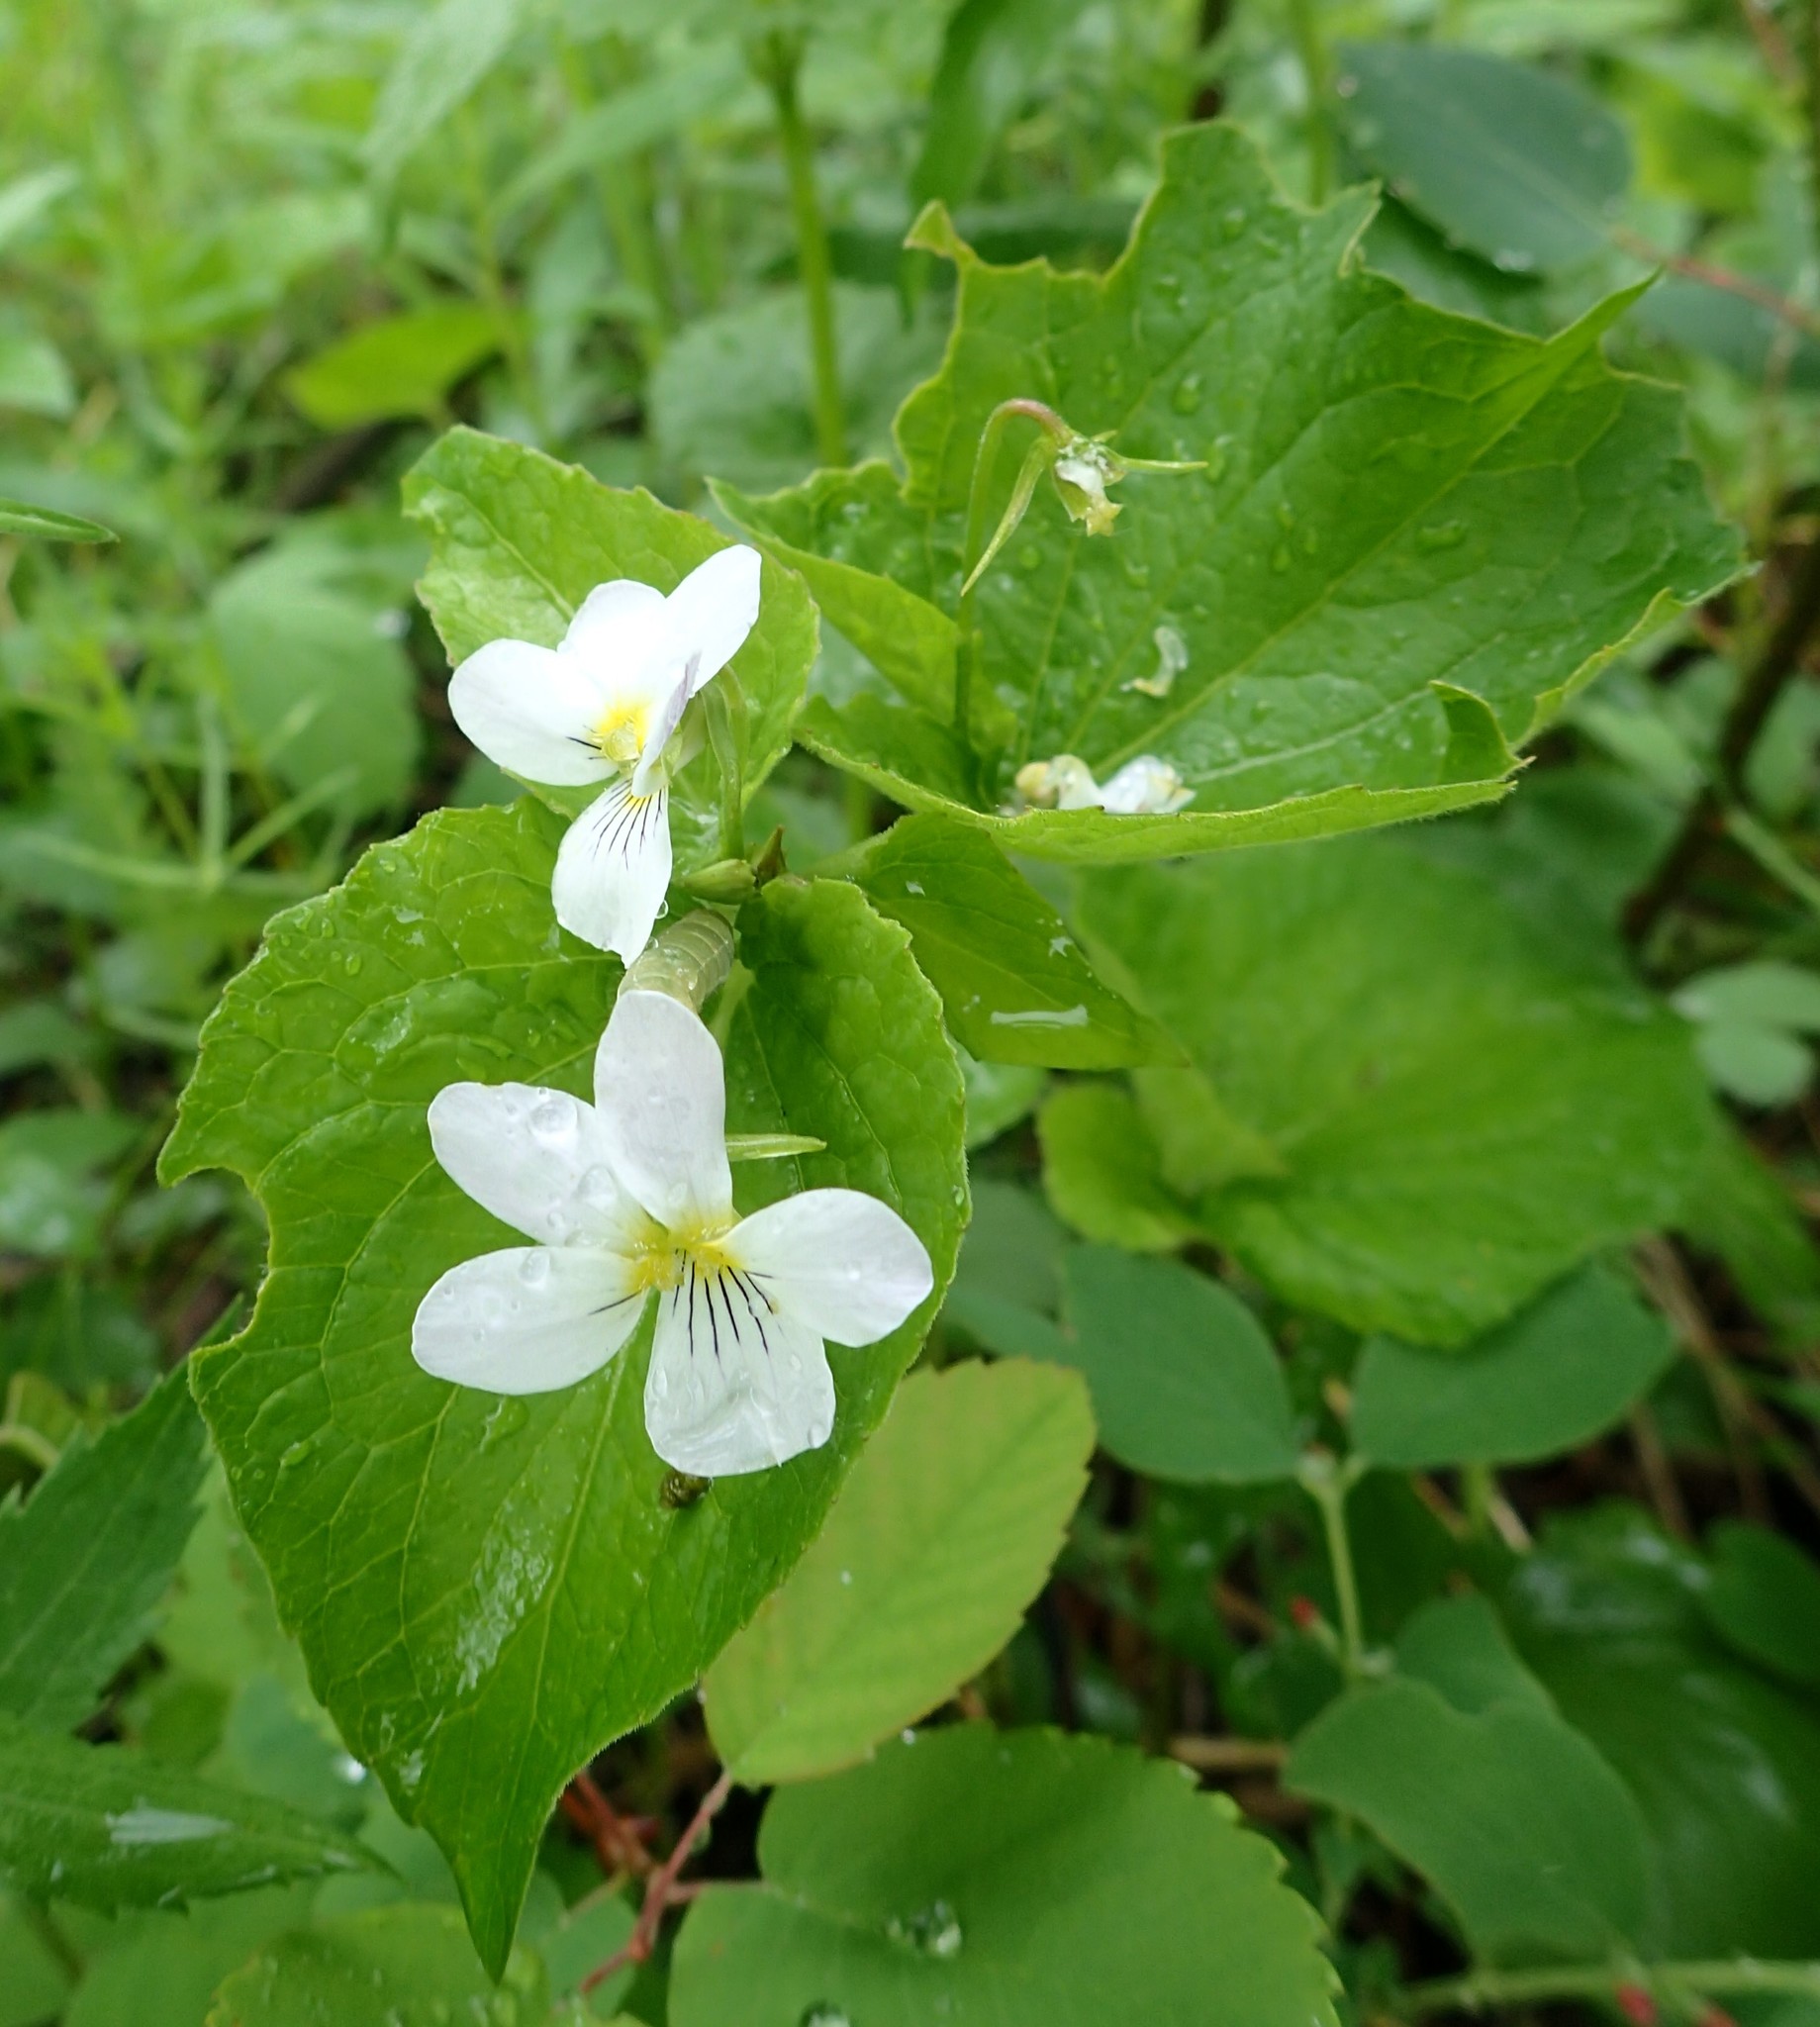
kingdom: Plantae
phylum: Tracheophyta
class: Magnoliopsida
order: Malpighiales
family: Violaceae
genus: Viola
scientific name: Viola canadensis
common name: Canada violet
